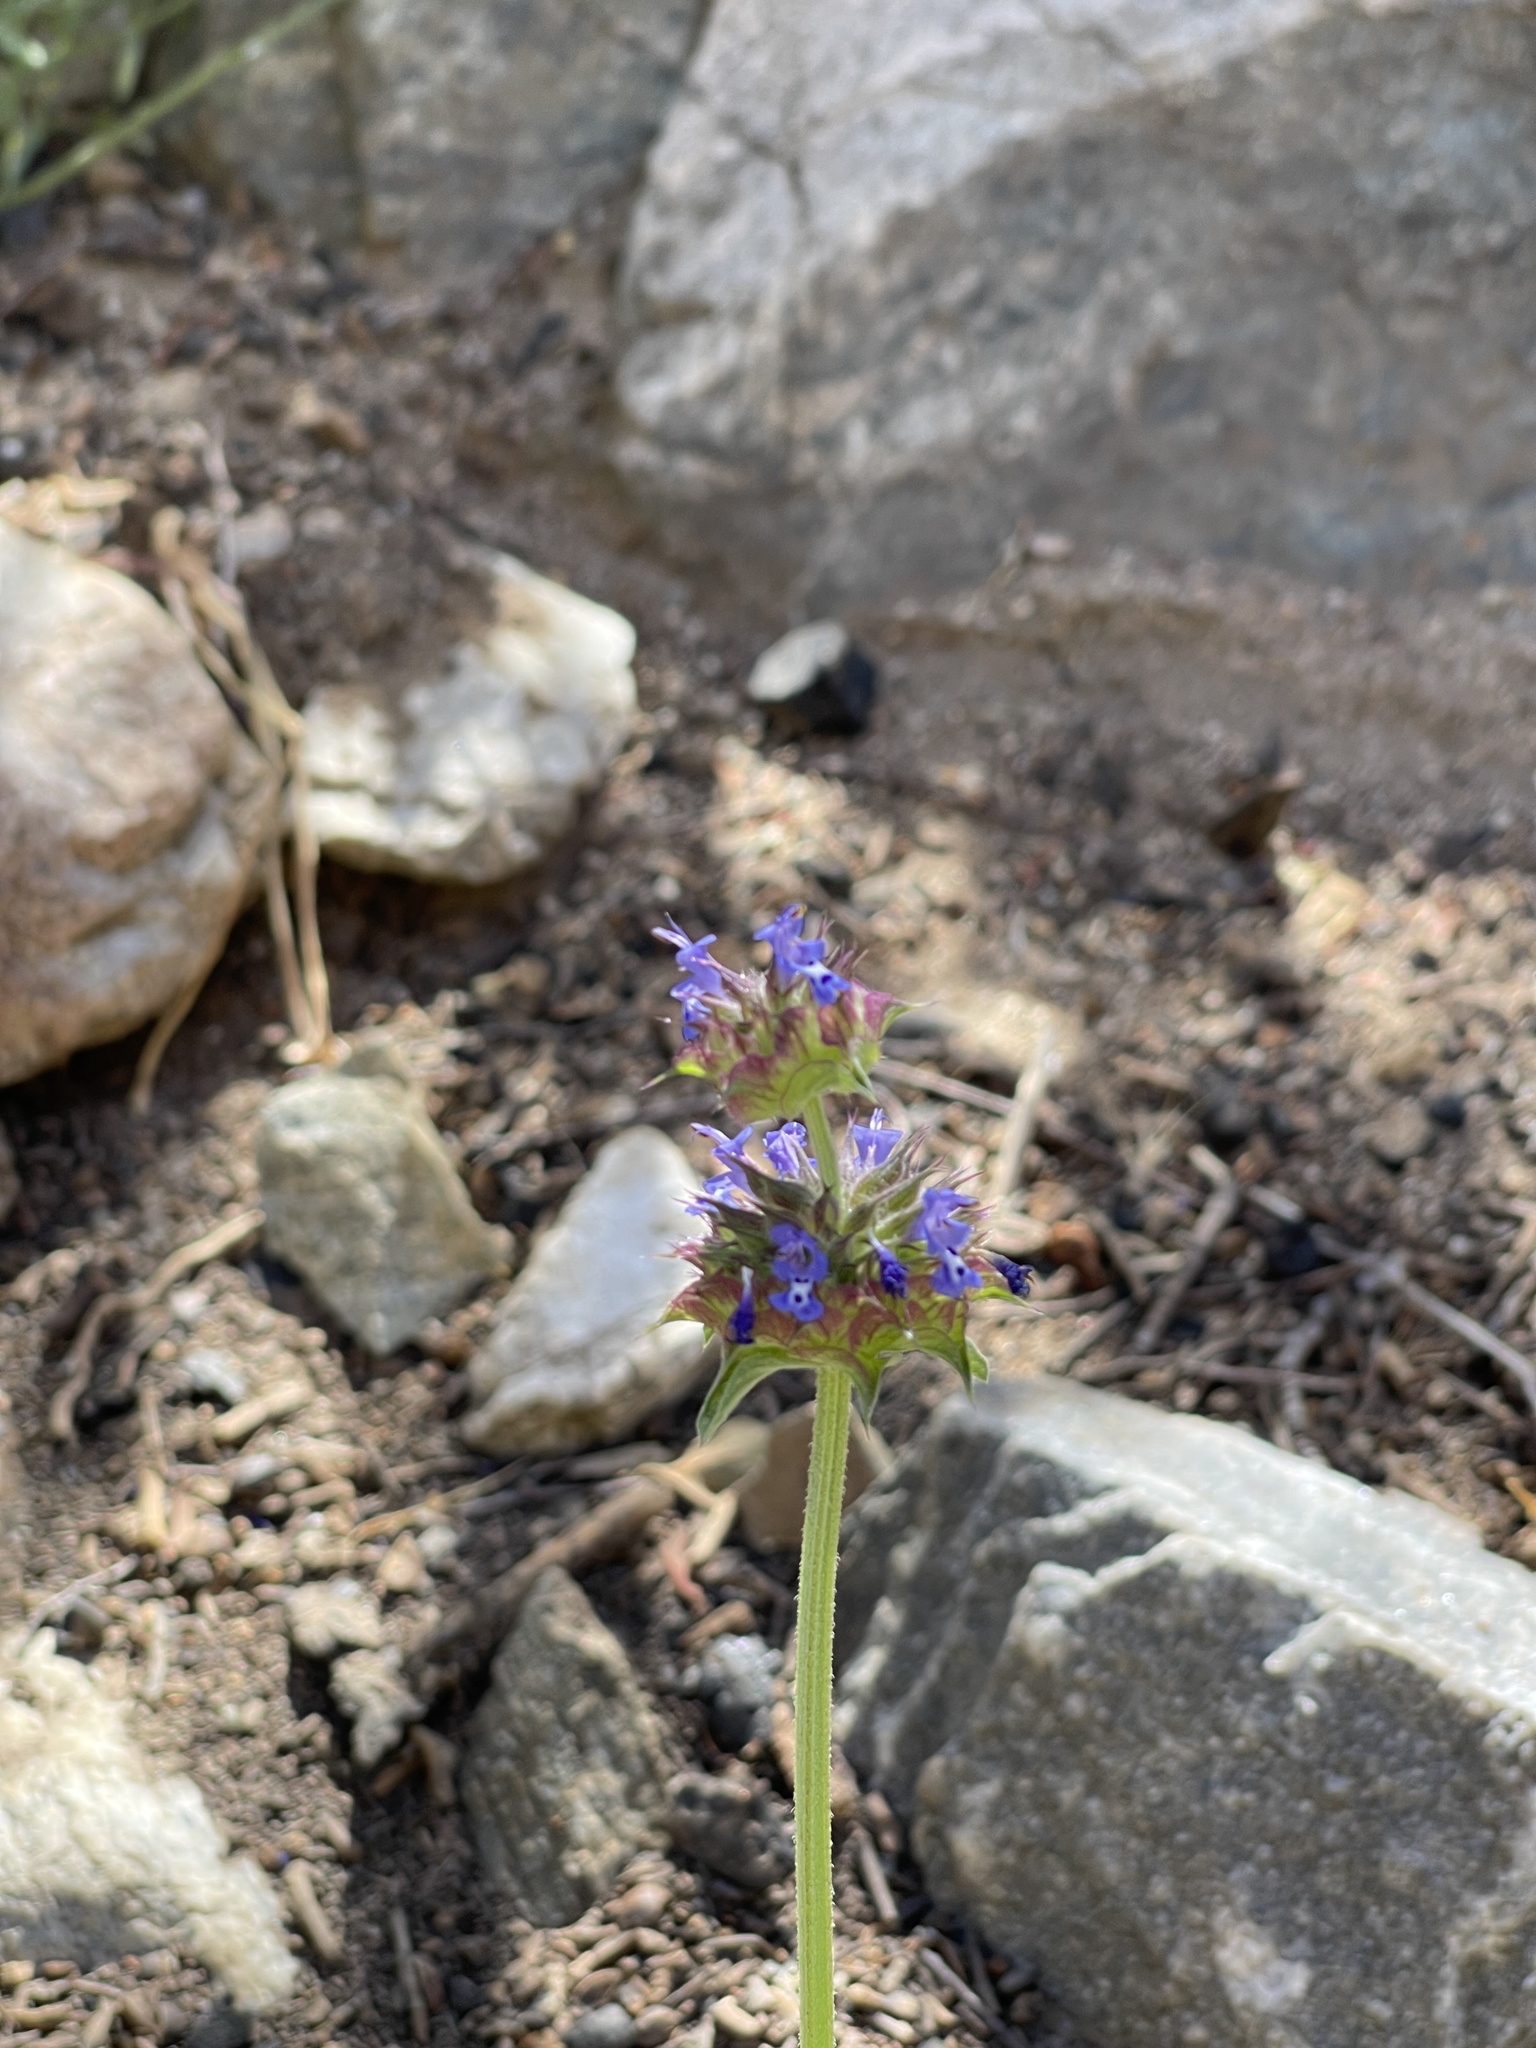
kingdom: Plantae
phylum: Tracheophyta
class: Magnoliopsida
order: Lamiales
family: Lamiaceae
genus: Salvia
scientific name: Salvia columbariae
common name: Chia
